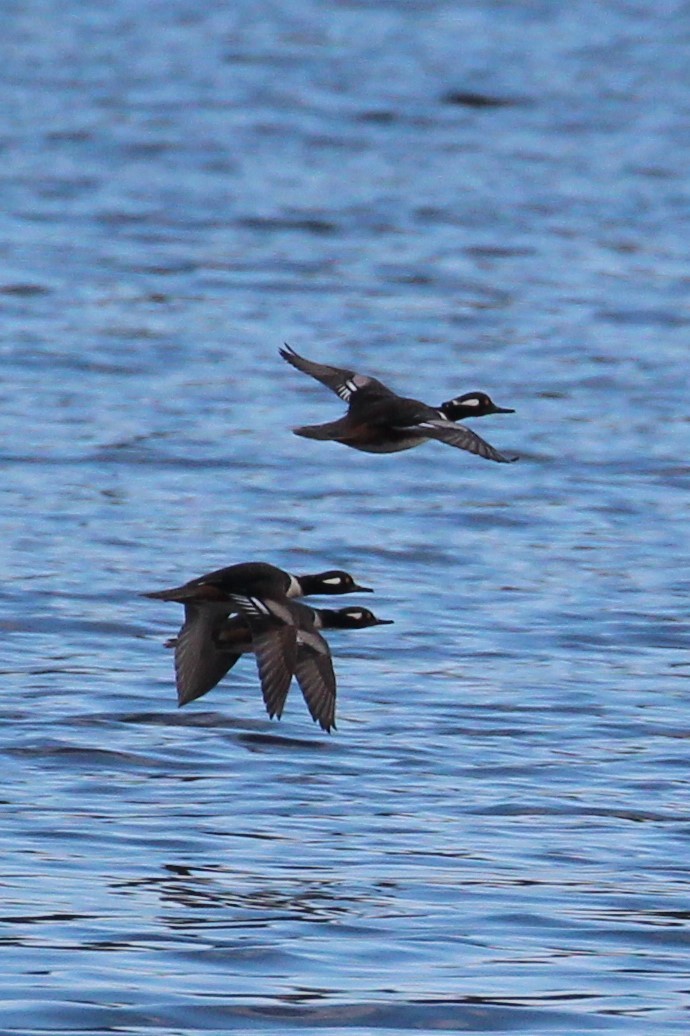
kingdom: Animalia
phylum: Chordata
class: Aves
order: Anseriformes
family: Anatidae
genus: Lophodytes
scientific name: Lophodytes cucullatus
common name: Hooded merganser
